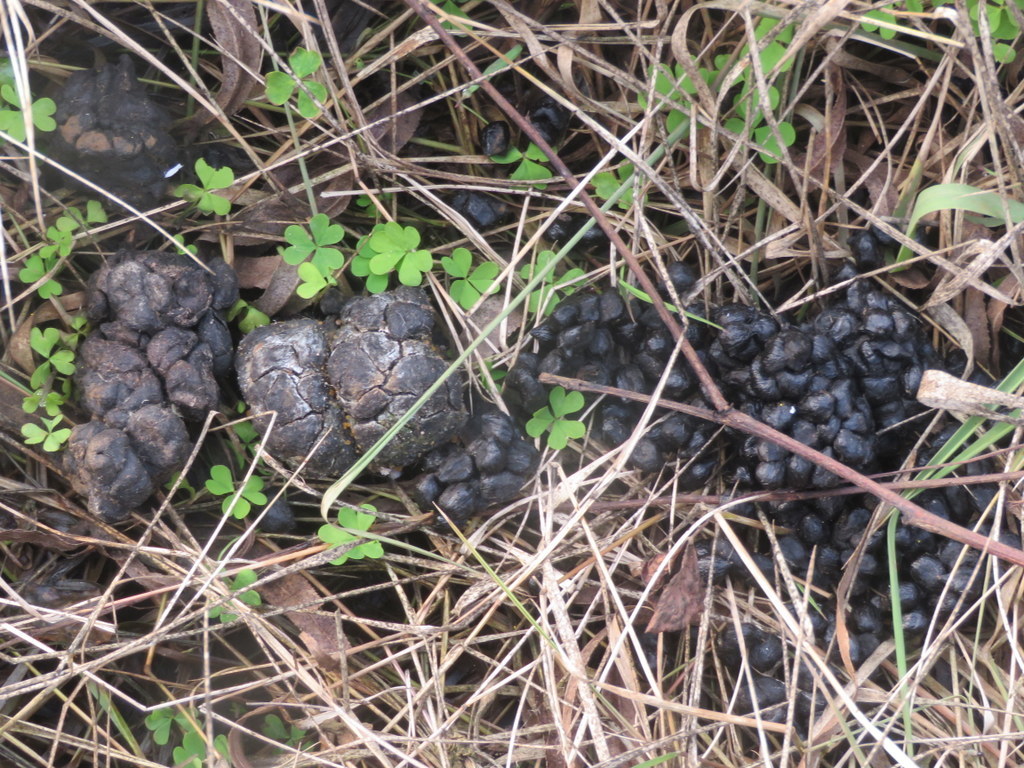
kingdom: Animalia
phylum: Chordata
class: Mammalia
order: Artiodactyla
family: Cervidae
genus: Mazama
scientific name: Mazama gouazoubira
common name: Gray brocket
